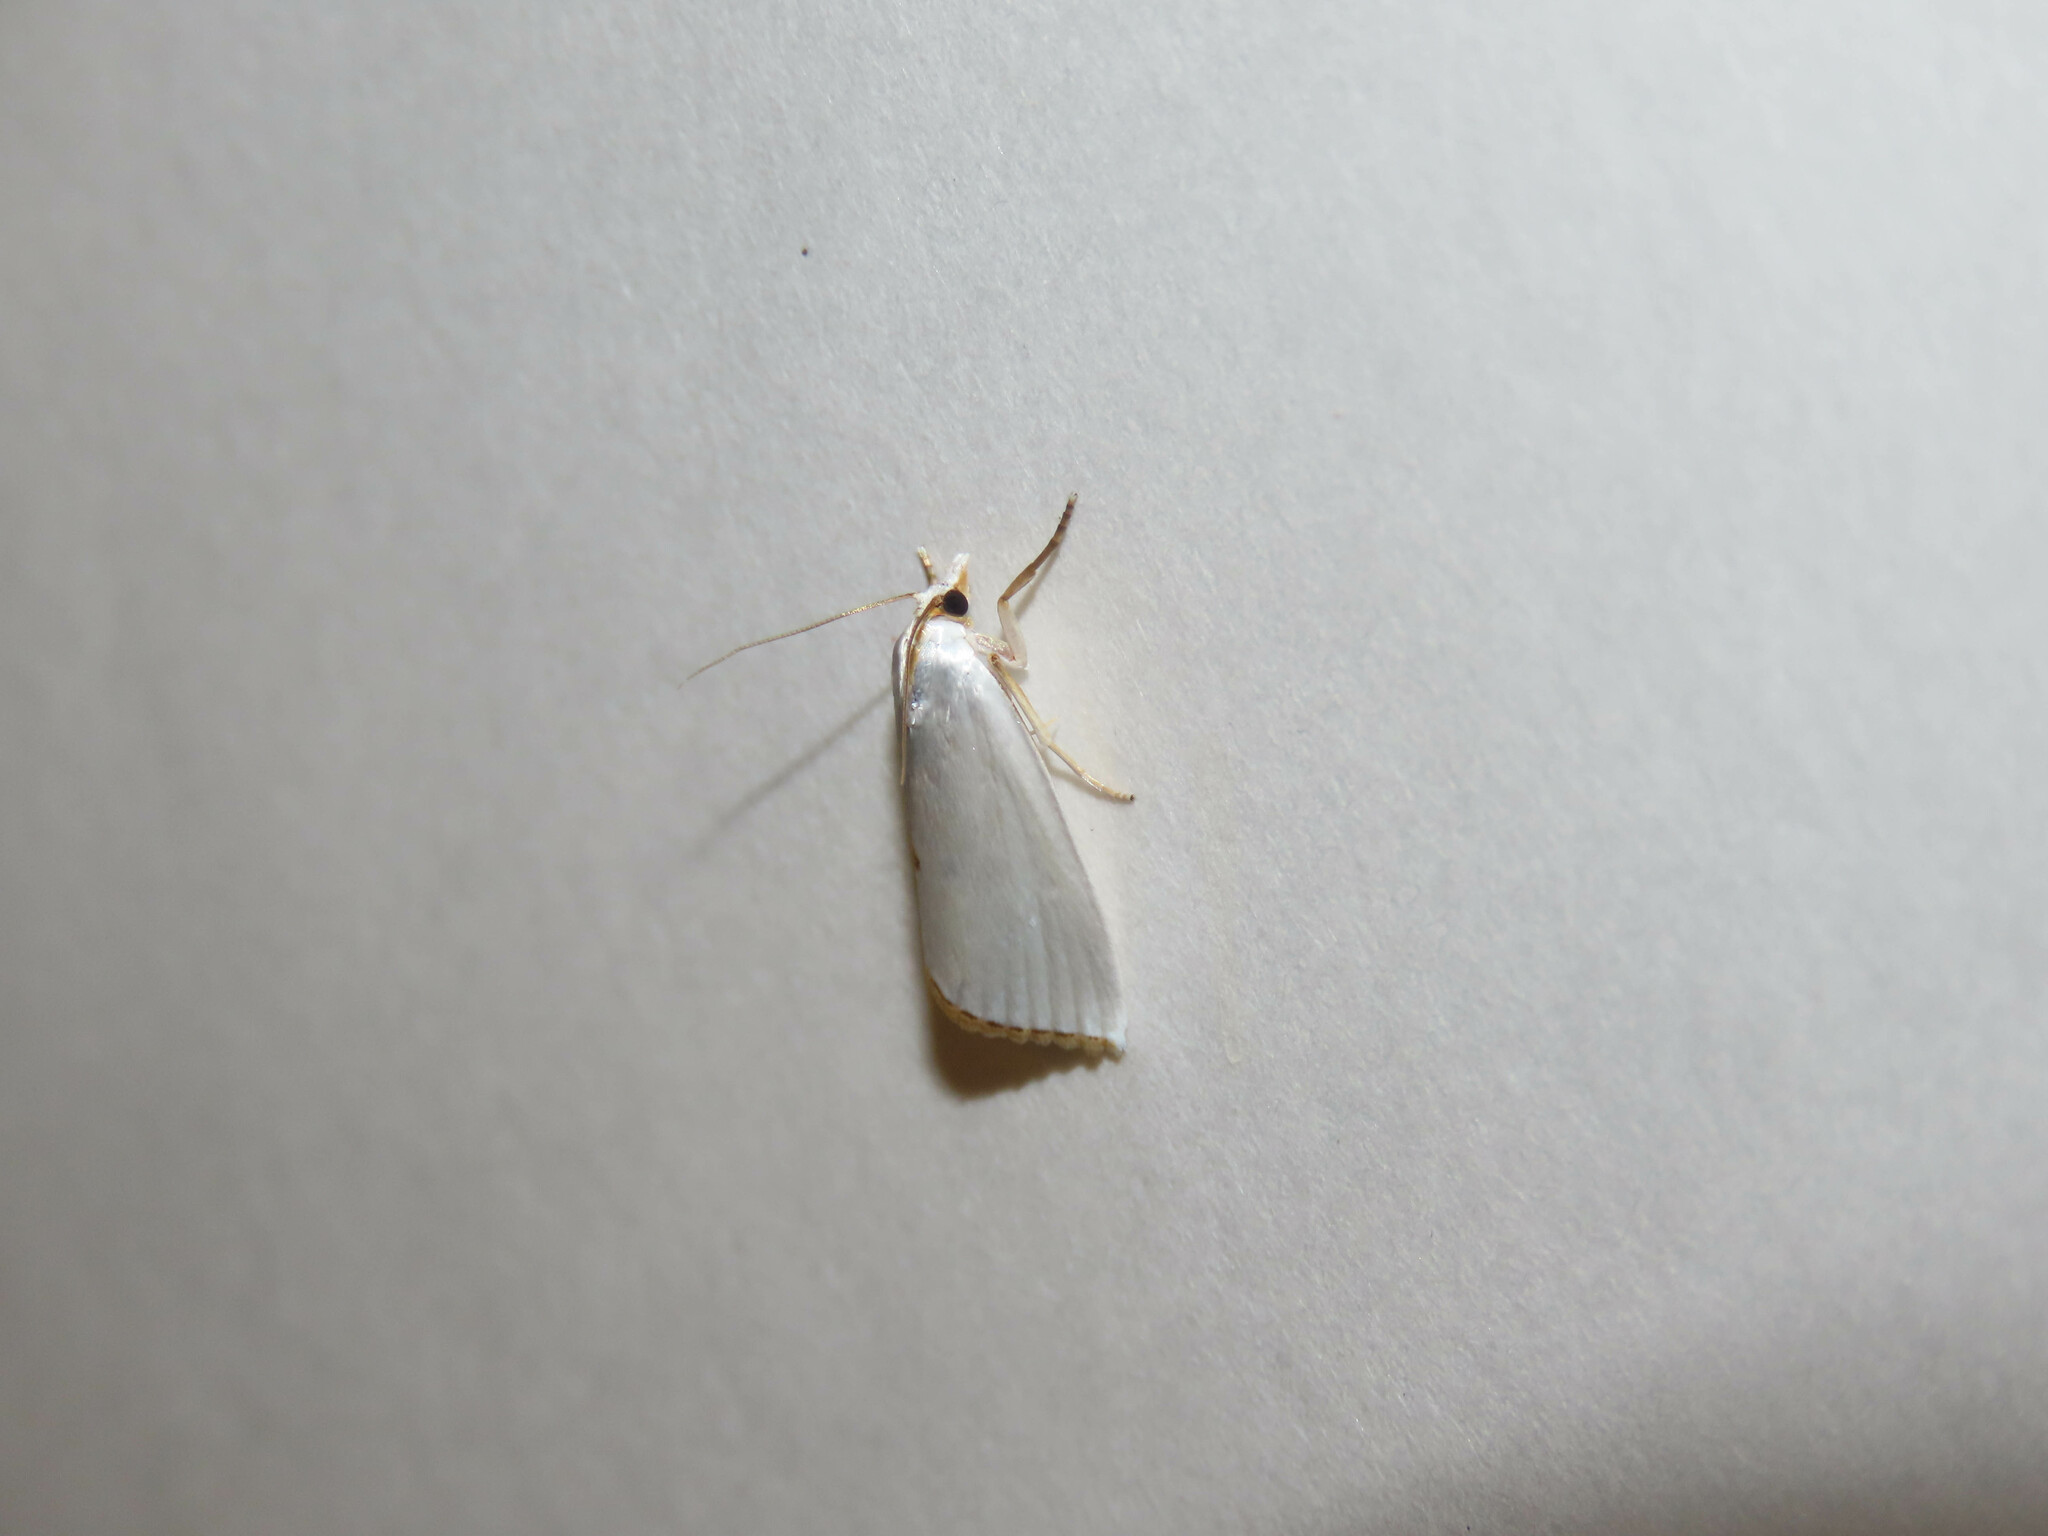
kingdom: Animalia
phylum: Arthropoda
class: Insecta
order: Lepidoptera
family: Crambidae
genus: Argyria
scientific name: Argyria nivalis
